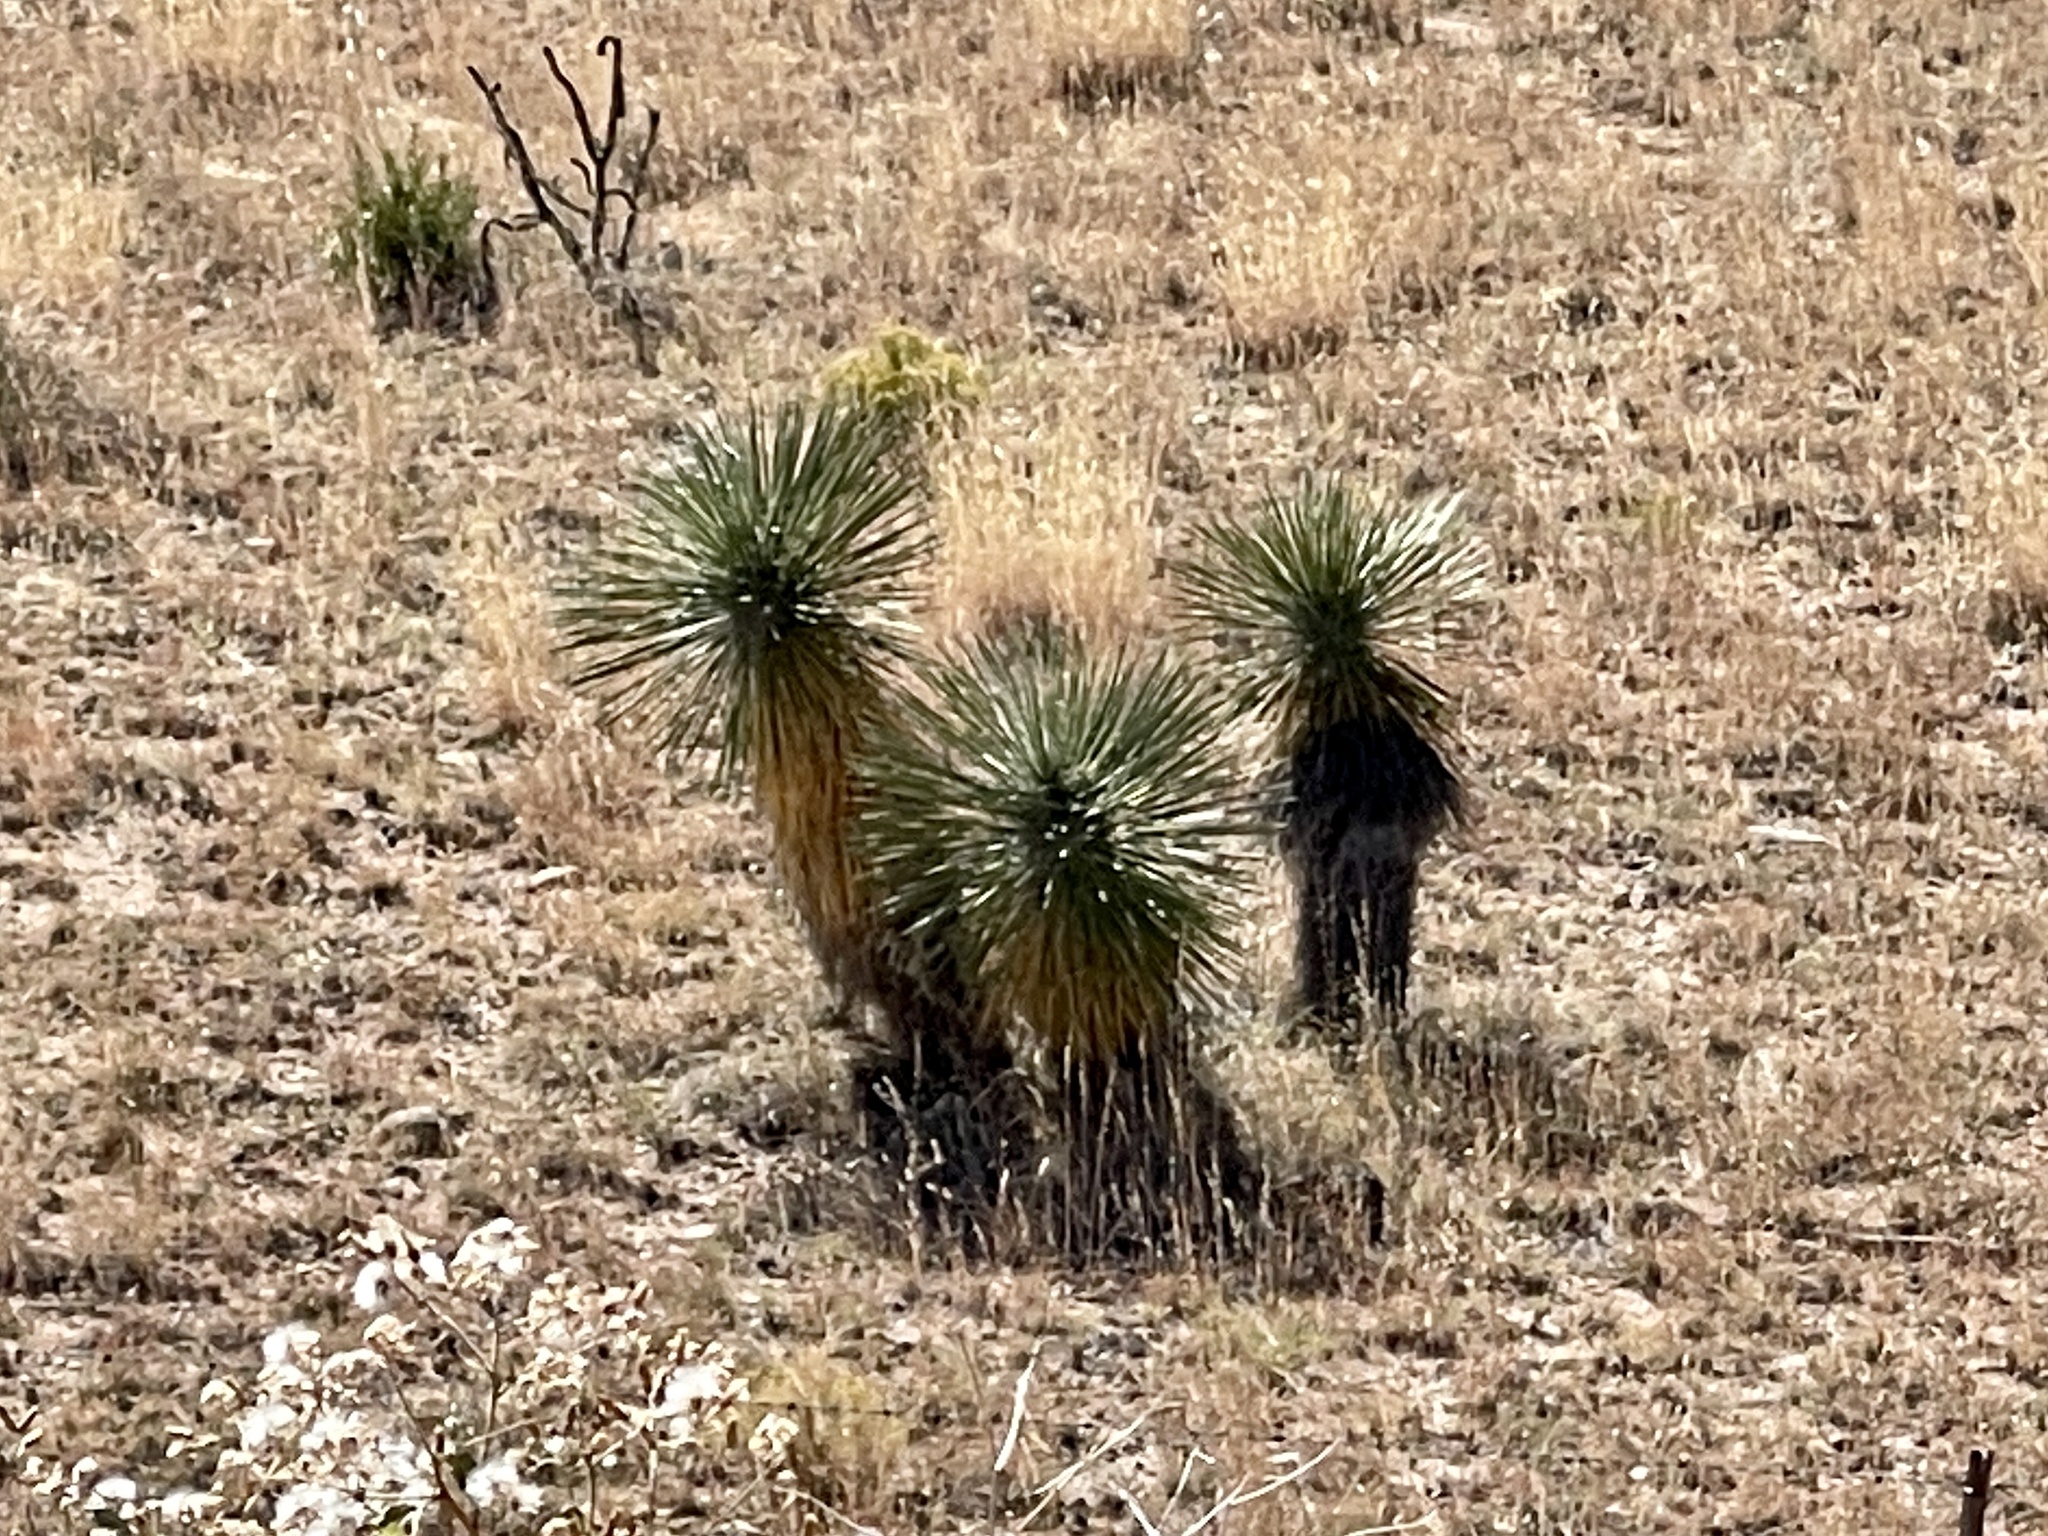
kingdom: Plantae
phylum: Tracheophyta
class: Liliopsida
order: Asparagales
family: Asparagaceae
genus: Yucca
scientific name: Yucca elata
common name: Palmella
